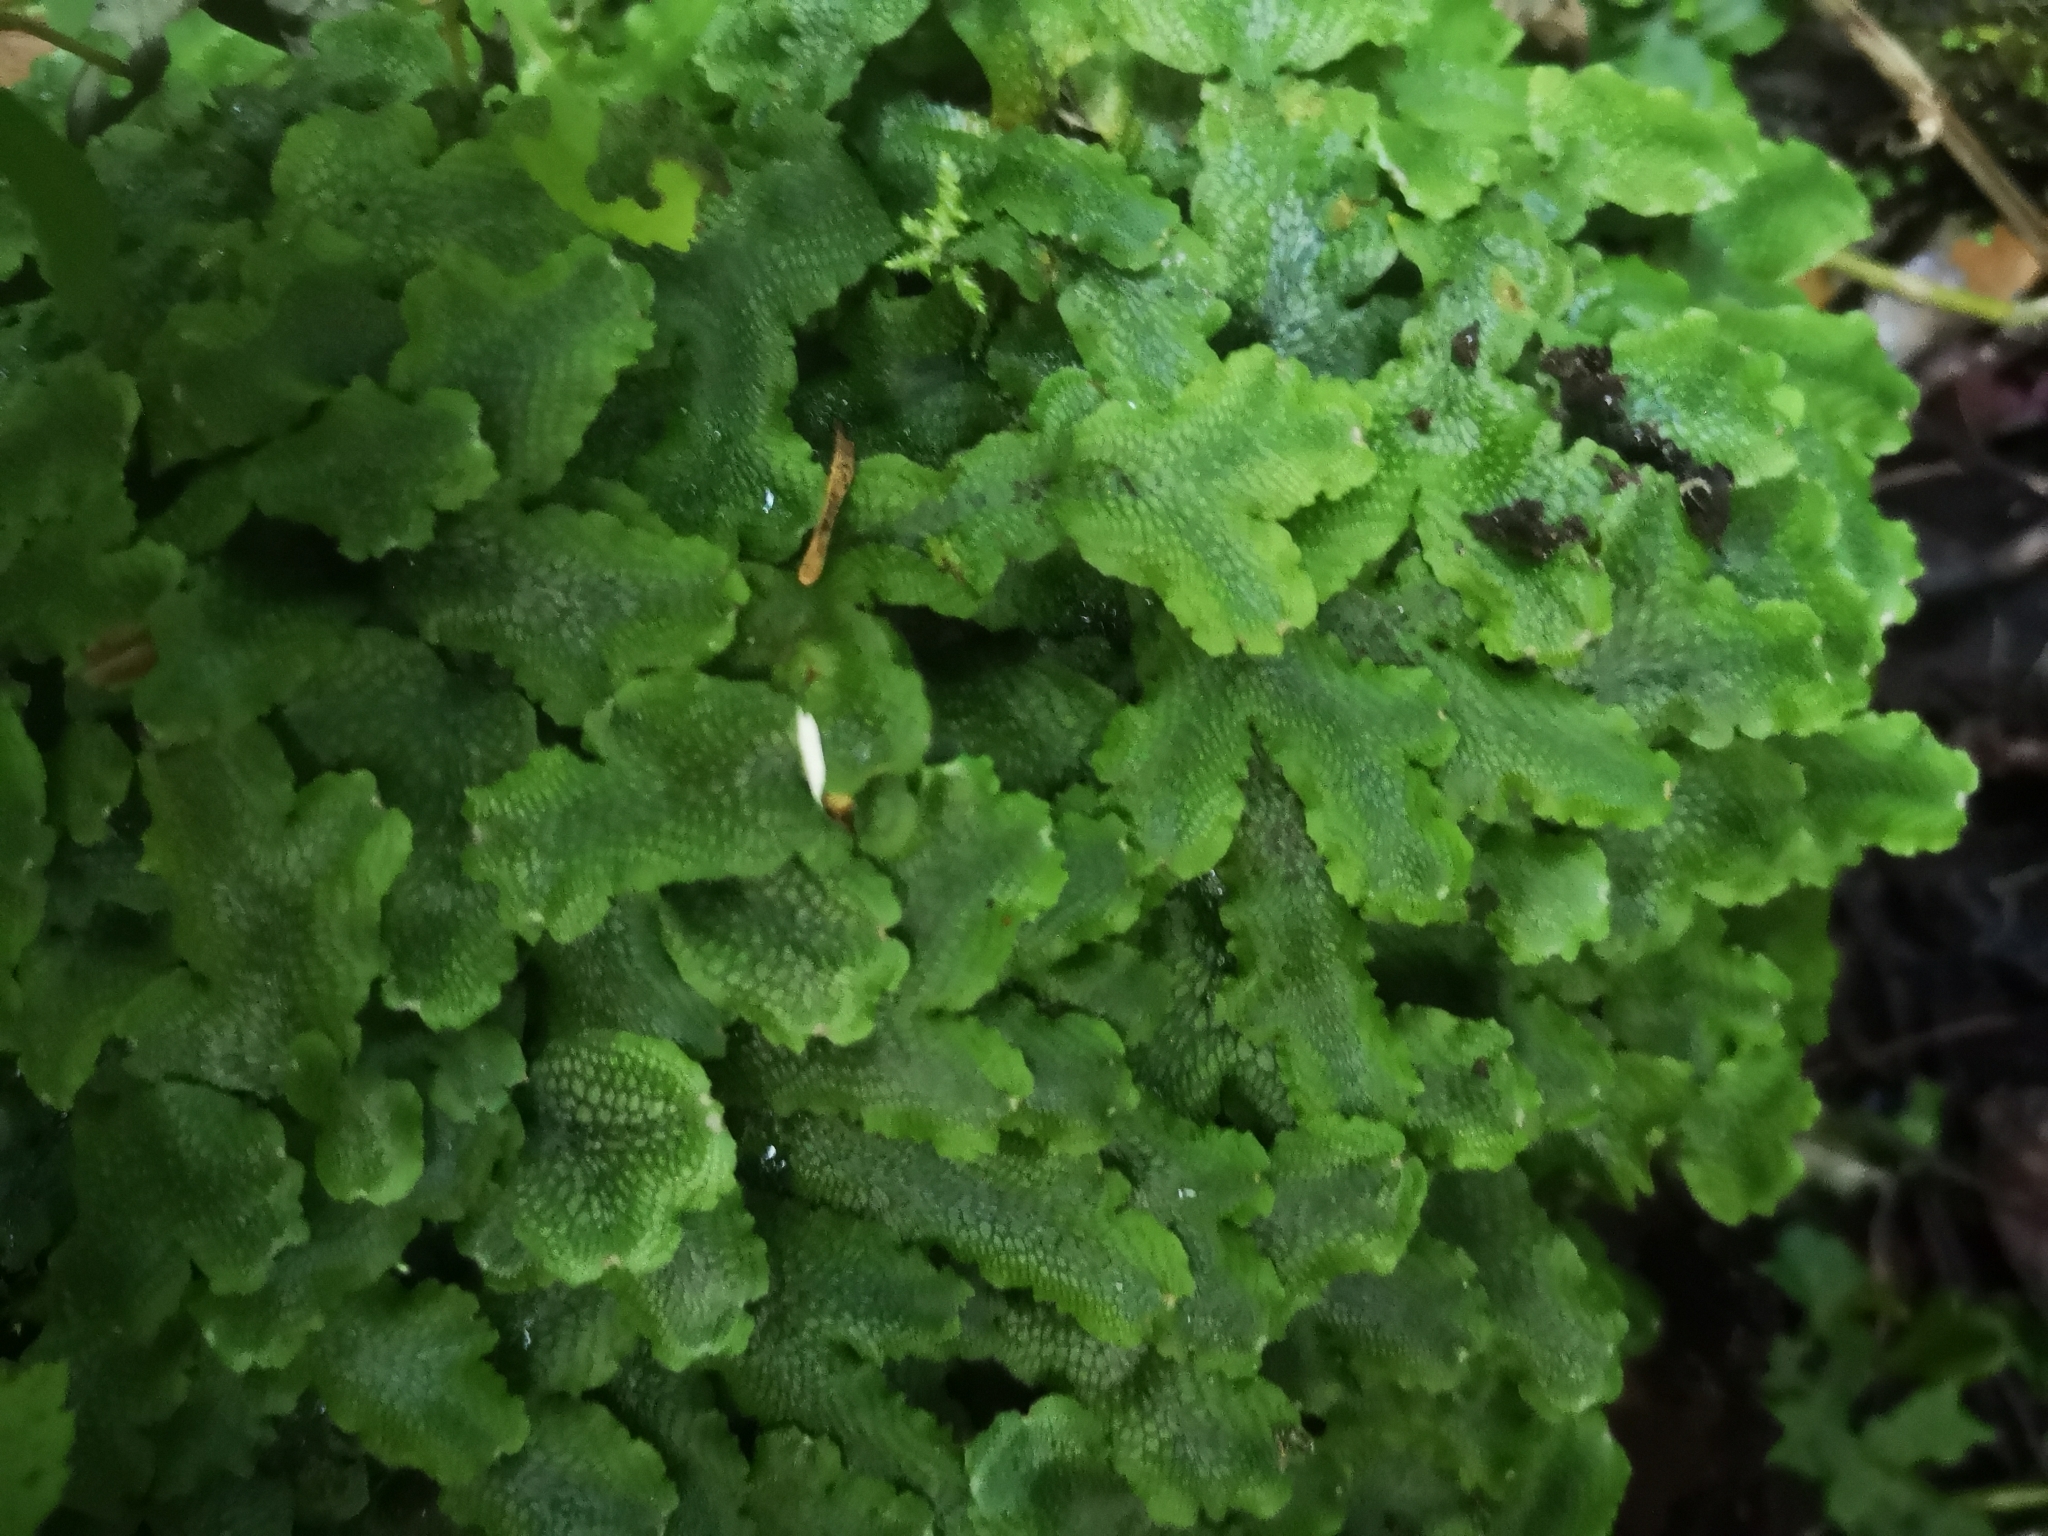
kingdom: Plantae
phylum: Marchantiophyta
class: Marchantiopsida
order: Marchantiales
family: Conocephalaceae
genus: Conocephalum
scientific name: Conocephalum salebrosum
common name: Cat-tongue liverwort
